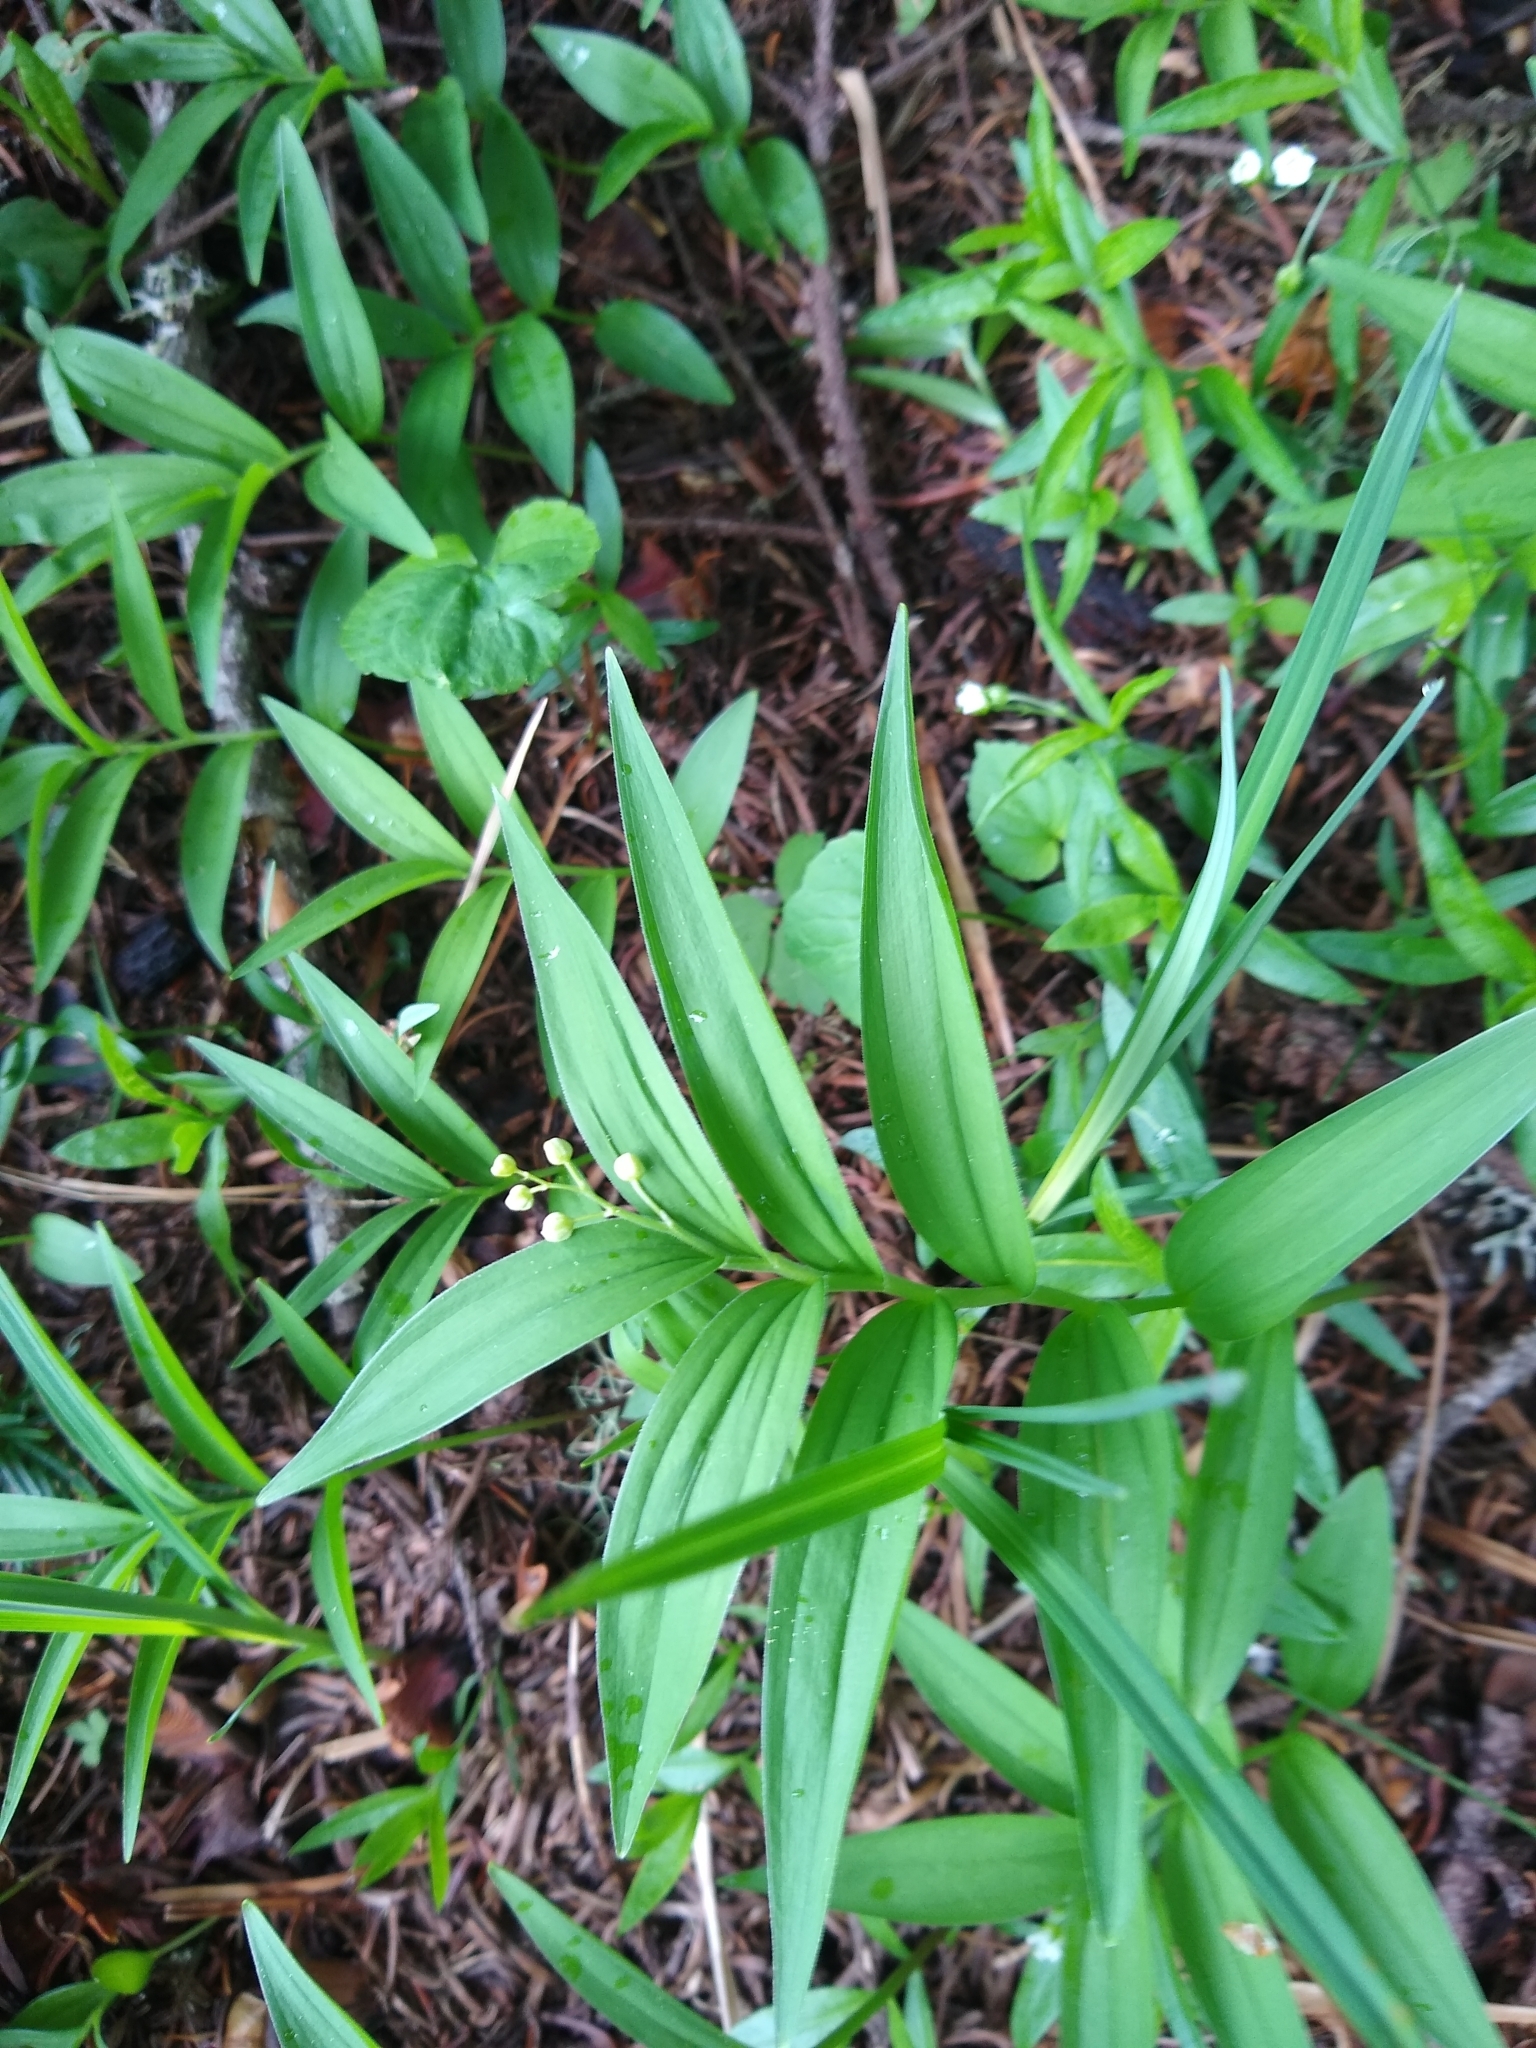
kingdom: Plantae
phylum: Tracheophyta
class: Liliopsida
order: Asparagales
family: Asparagaceae
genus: Maianthemum
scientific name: Maianthemum stellatum
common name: Little false solomon's seal
